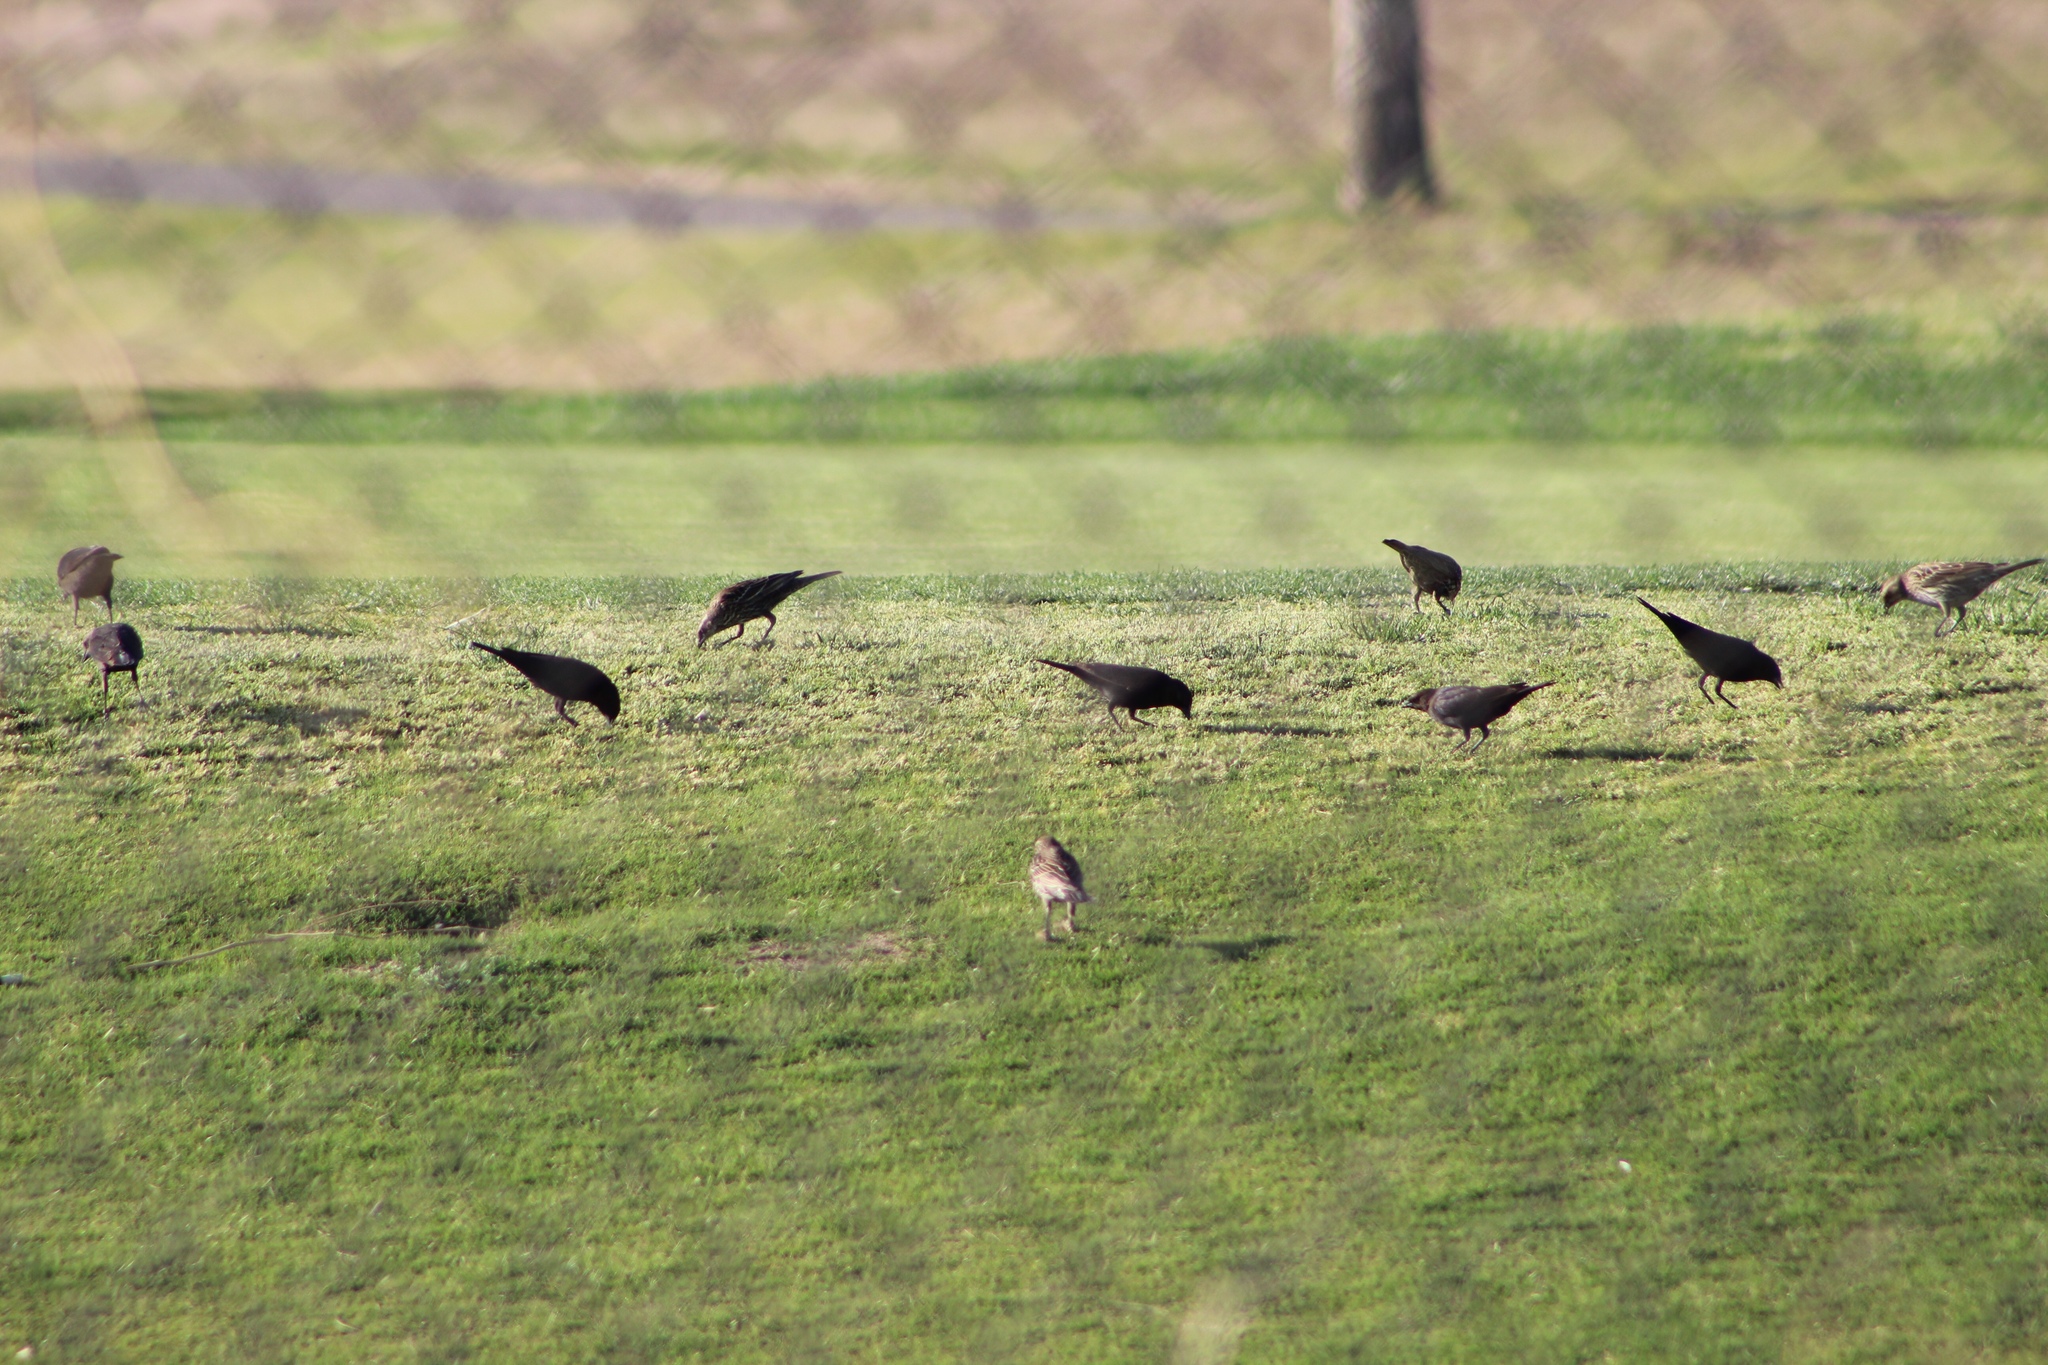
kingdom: Animalia
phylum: Chordata
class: Aves
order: Passeriformes
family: Icteridae
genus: Agelaius
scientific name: Agelaius phoeniceus
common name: Red-winged blackbird
